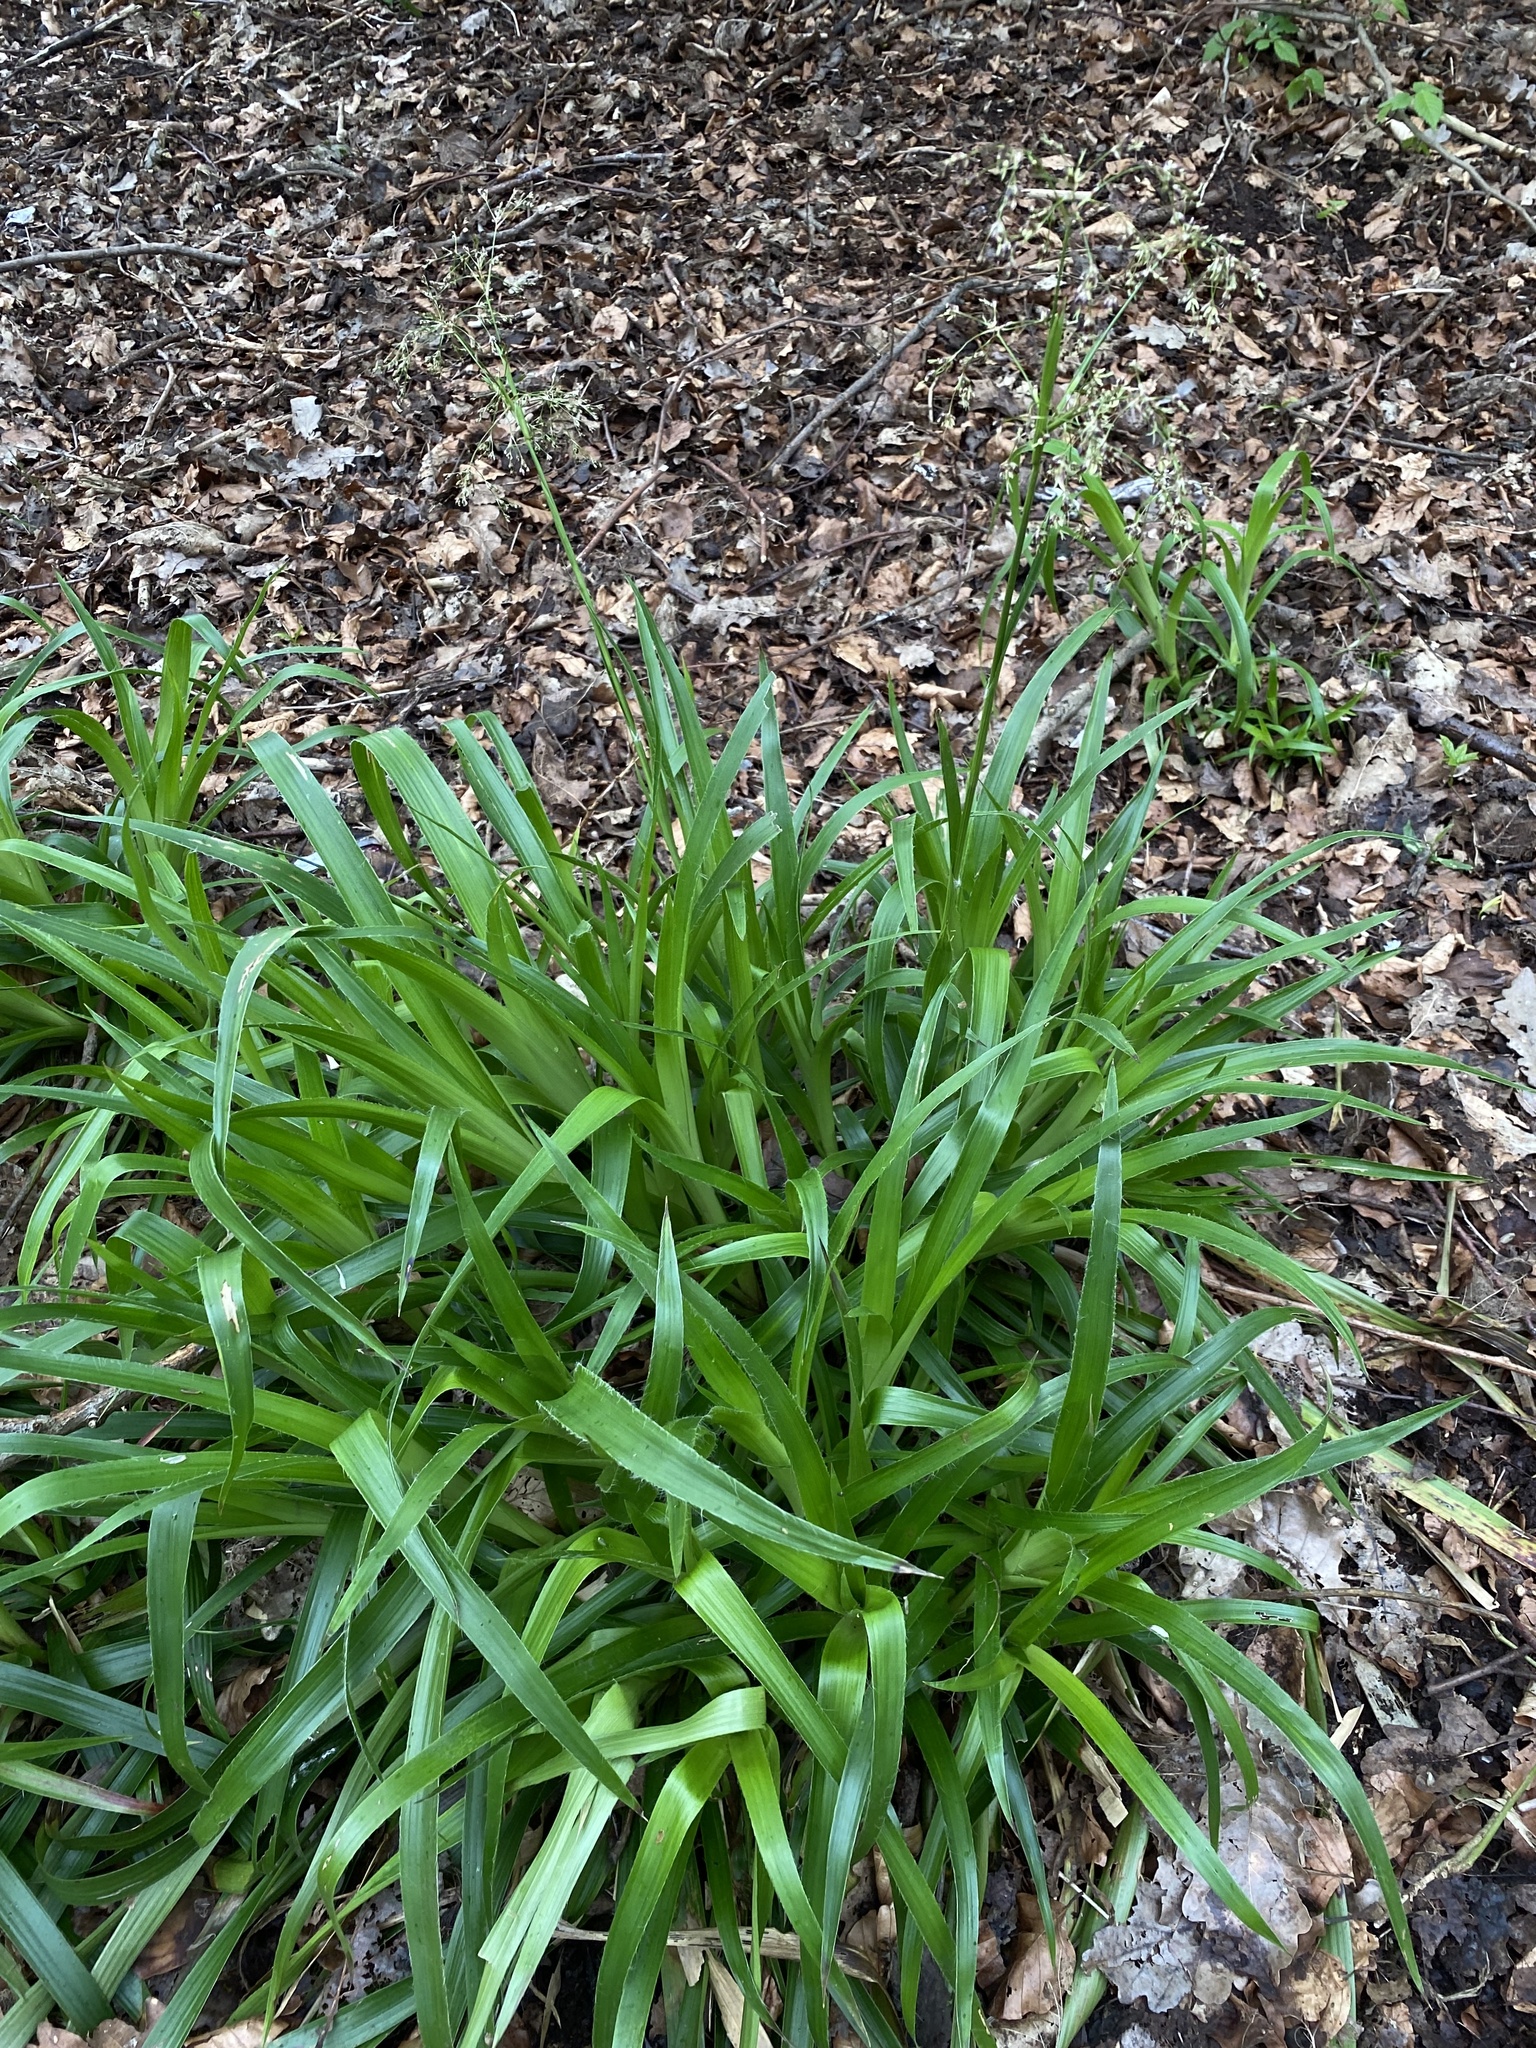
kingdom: Plantae
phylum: Tracheophyta
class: Liliopsida
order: Poales
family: Juncaceae
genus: Luzula
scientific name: Luzula sylvatica
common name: Great wood-rush
